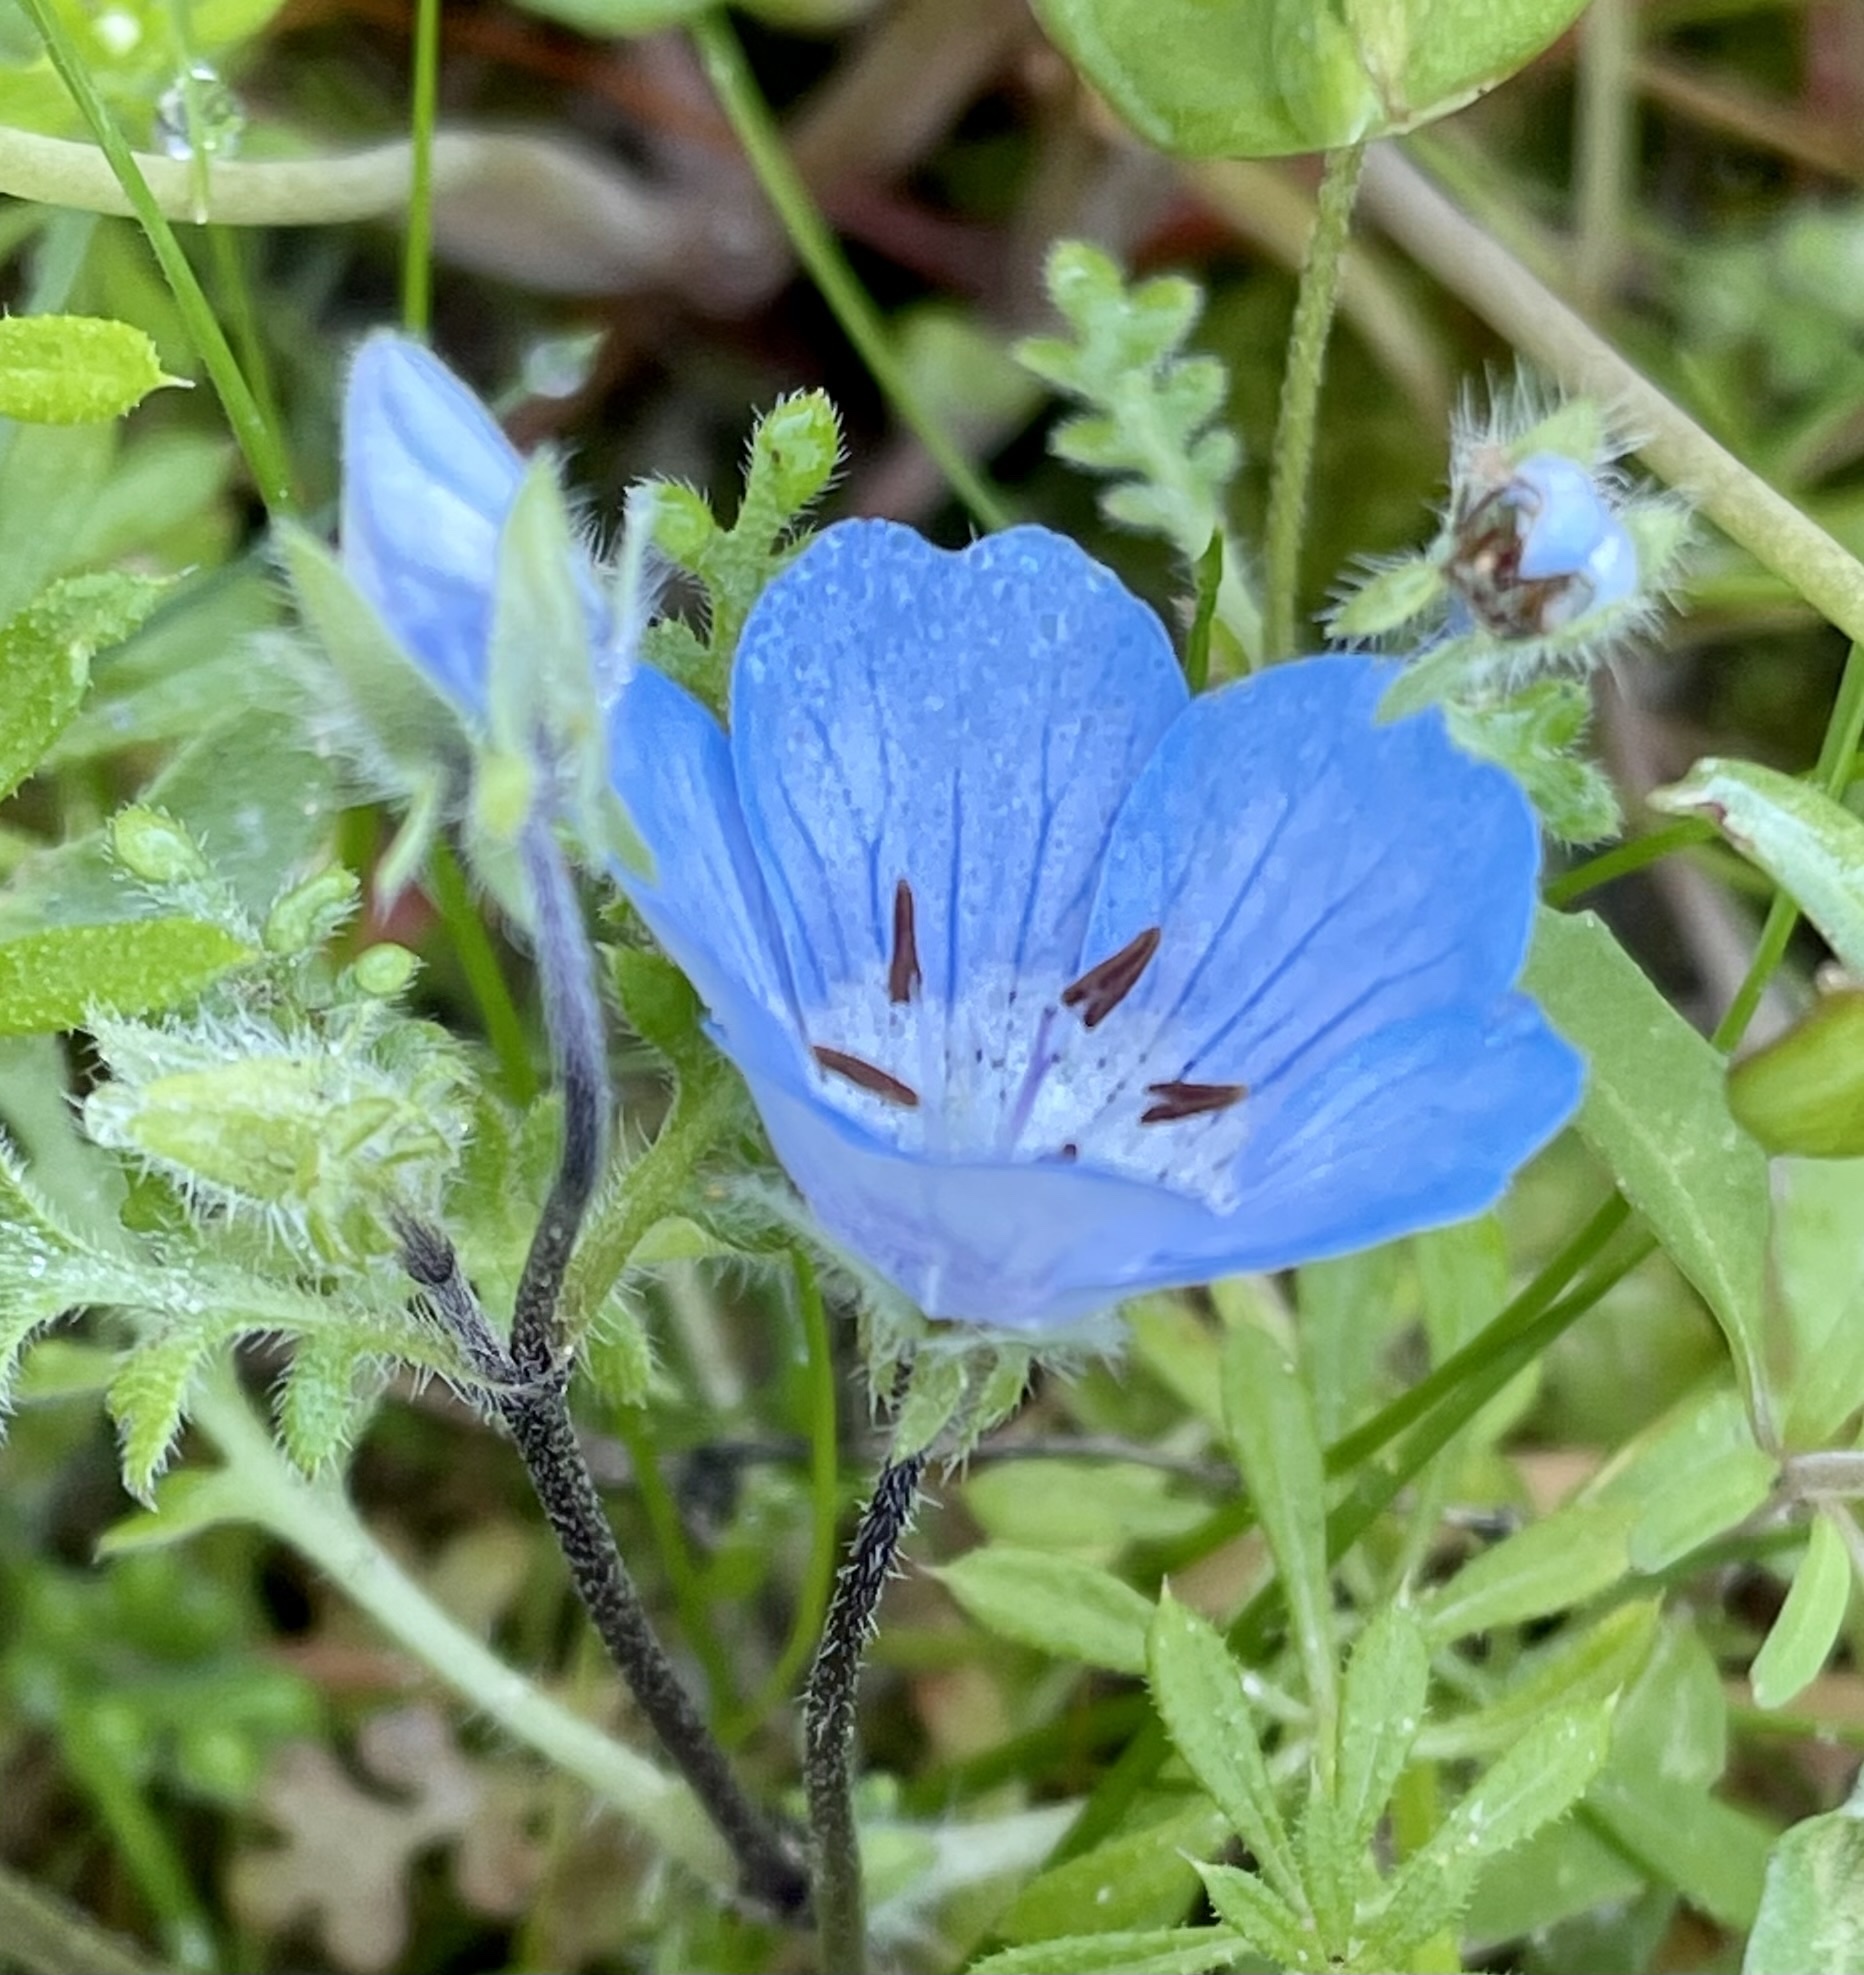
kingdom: Plantae
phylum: Tracheophyta
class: Magnoliopsida
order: Boraginales
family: Hydrophyllaceae
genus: Nemophila
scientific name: Nemophila menziesii
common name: Baby's-blue-eyes
